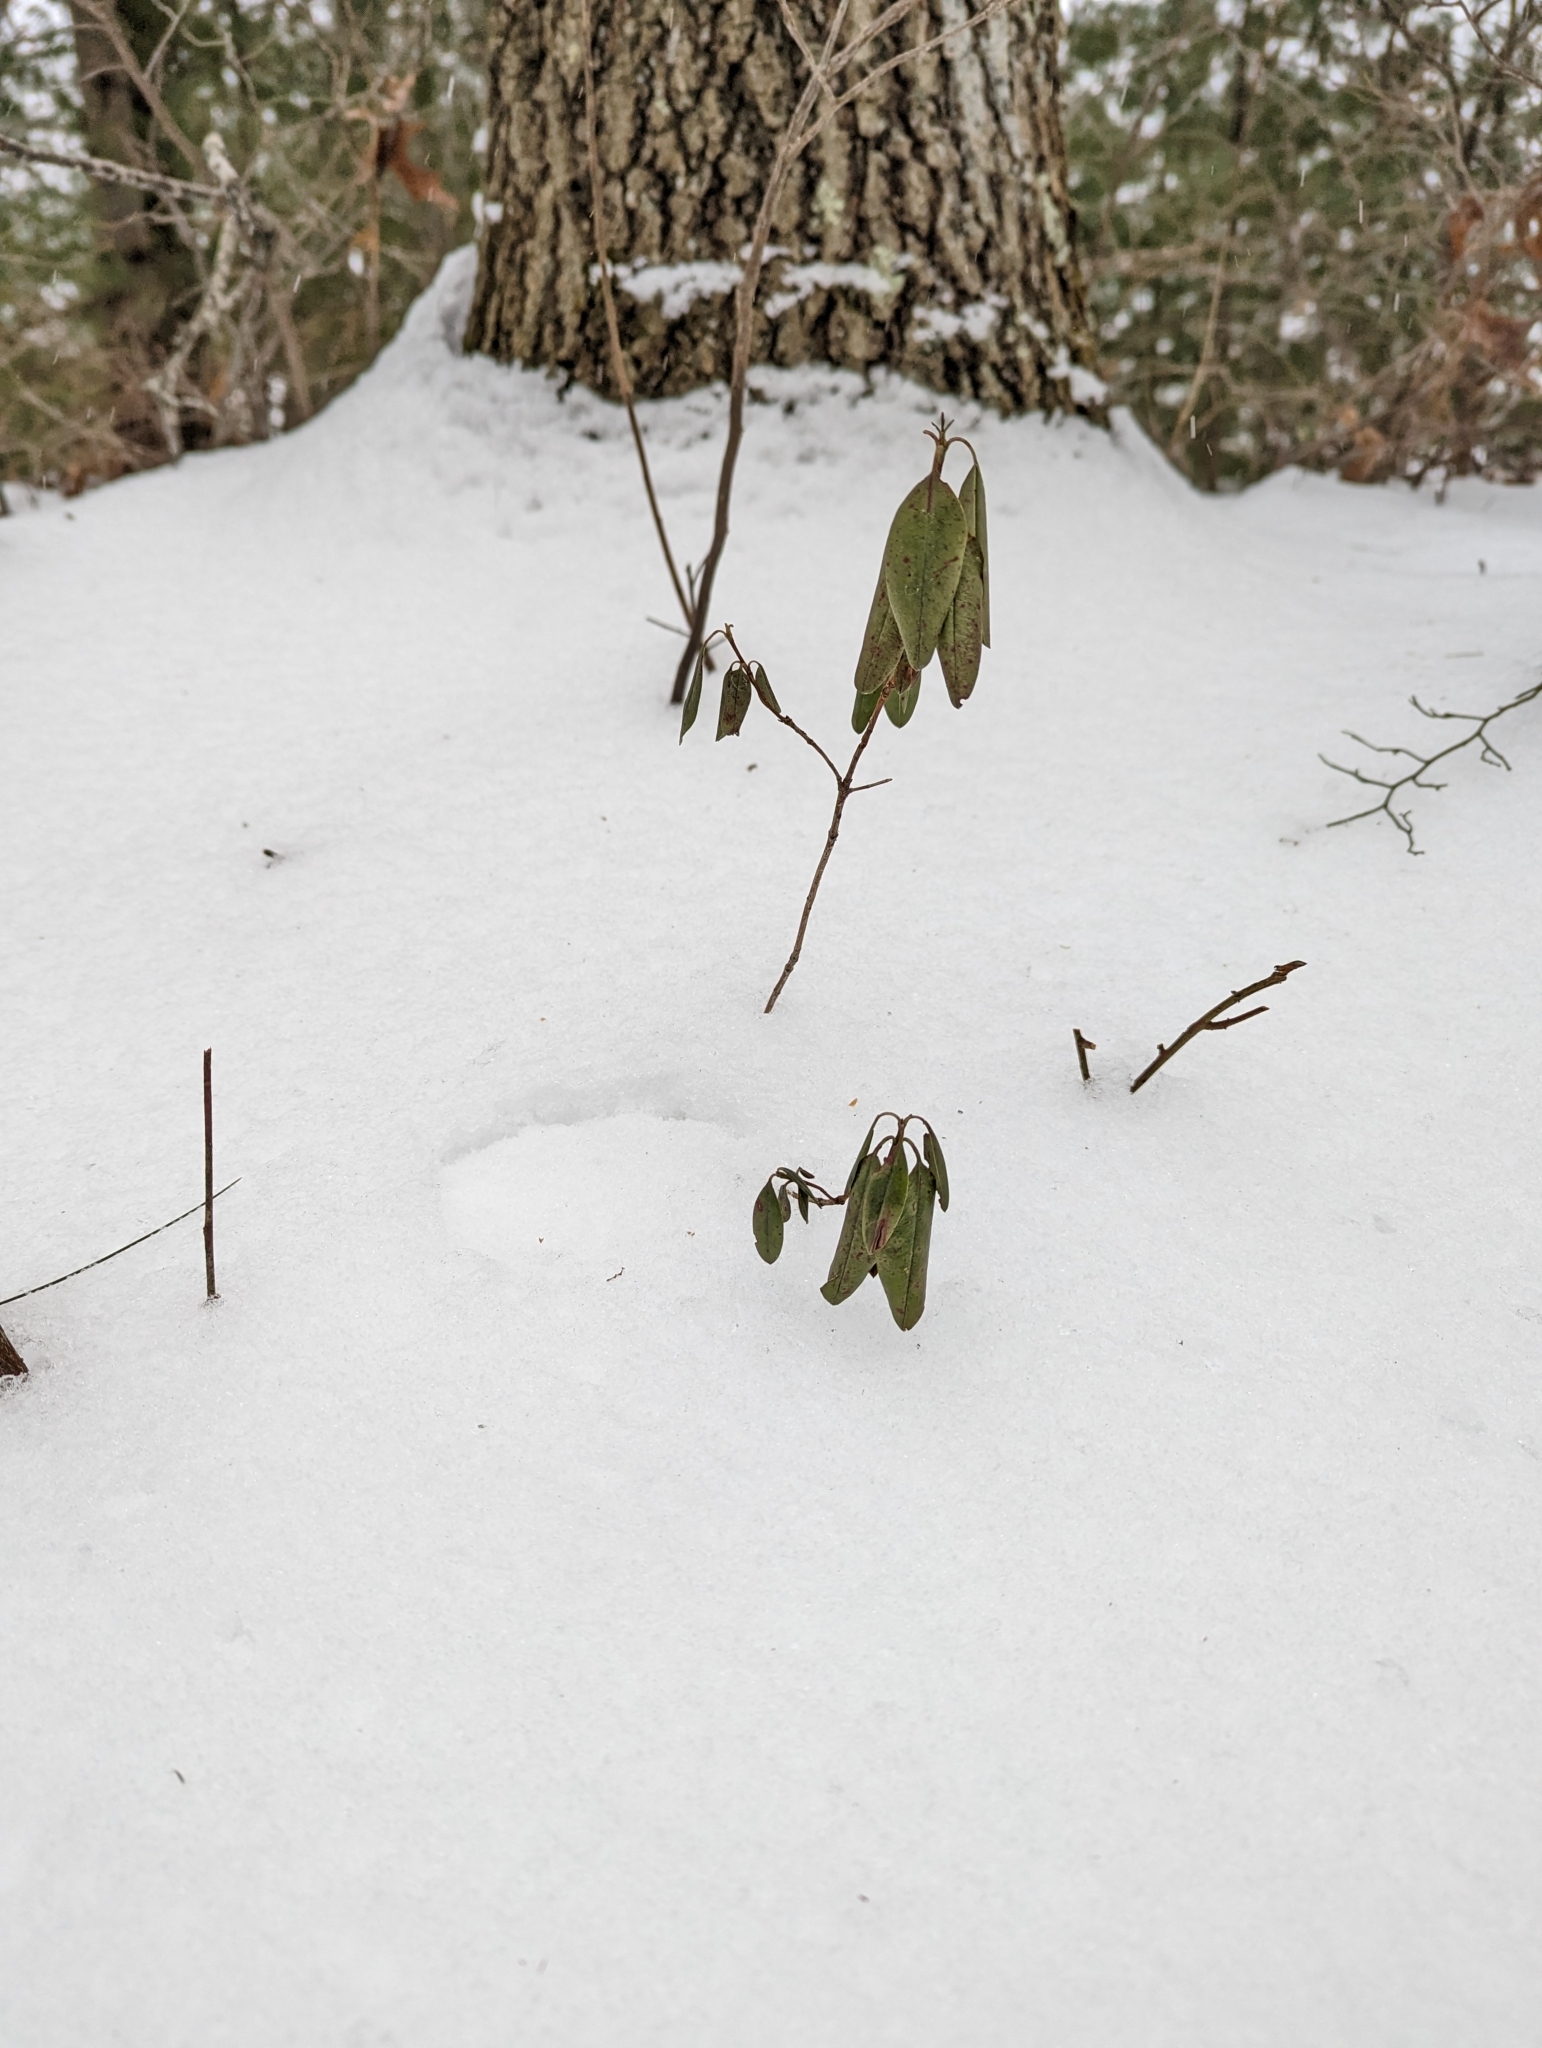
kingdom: Plantae
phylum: Tracheophyta
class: Magnoliopsida
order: Ericales
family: Ericaceae
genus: Kalmia
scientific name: Kalmia angustifolia
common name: Sheep-laurel
